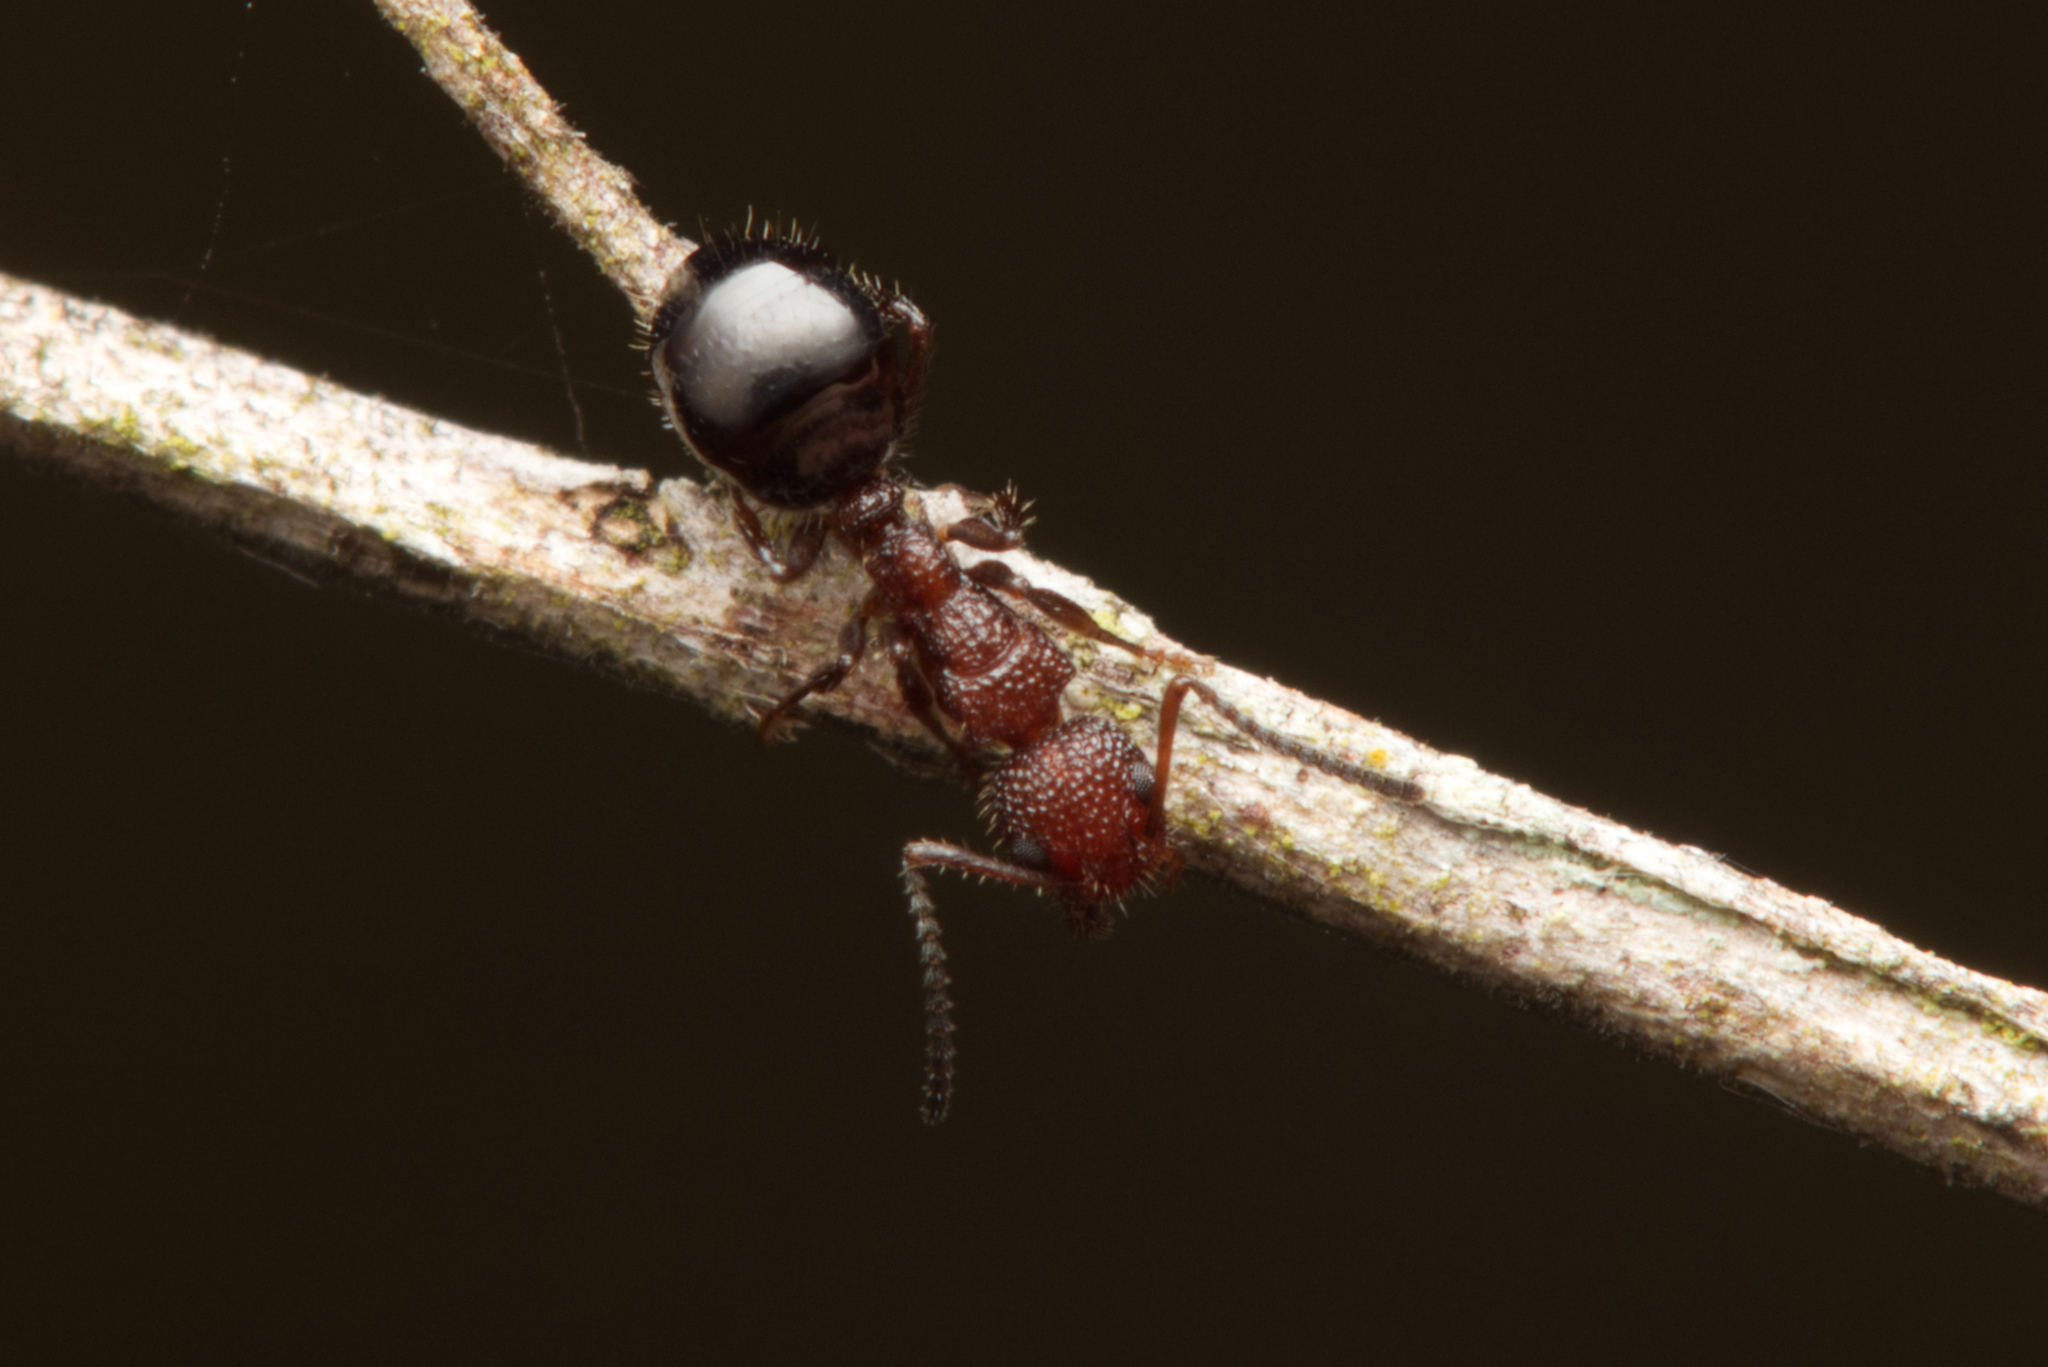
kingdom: Animalia
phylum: Arthropoda
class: Insecta
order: Hymenoptera
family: Formicidae
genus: Dolichoderus
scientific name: Dolichoderus reflexus
